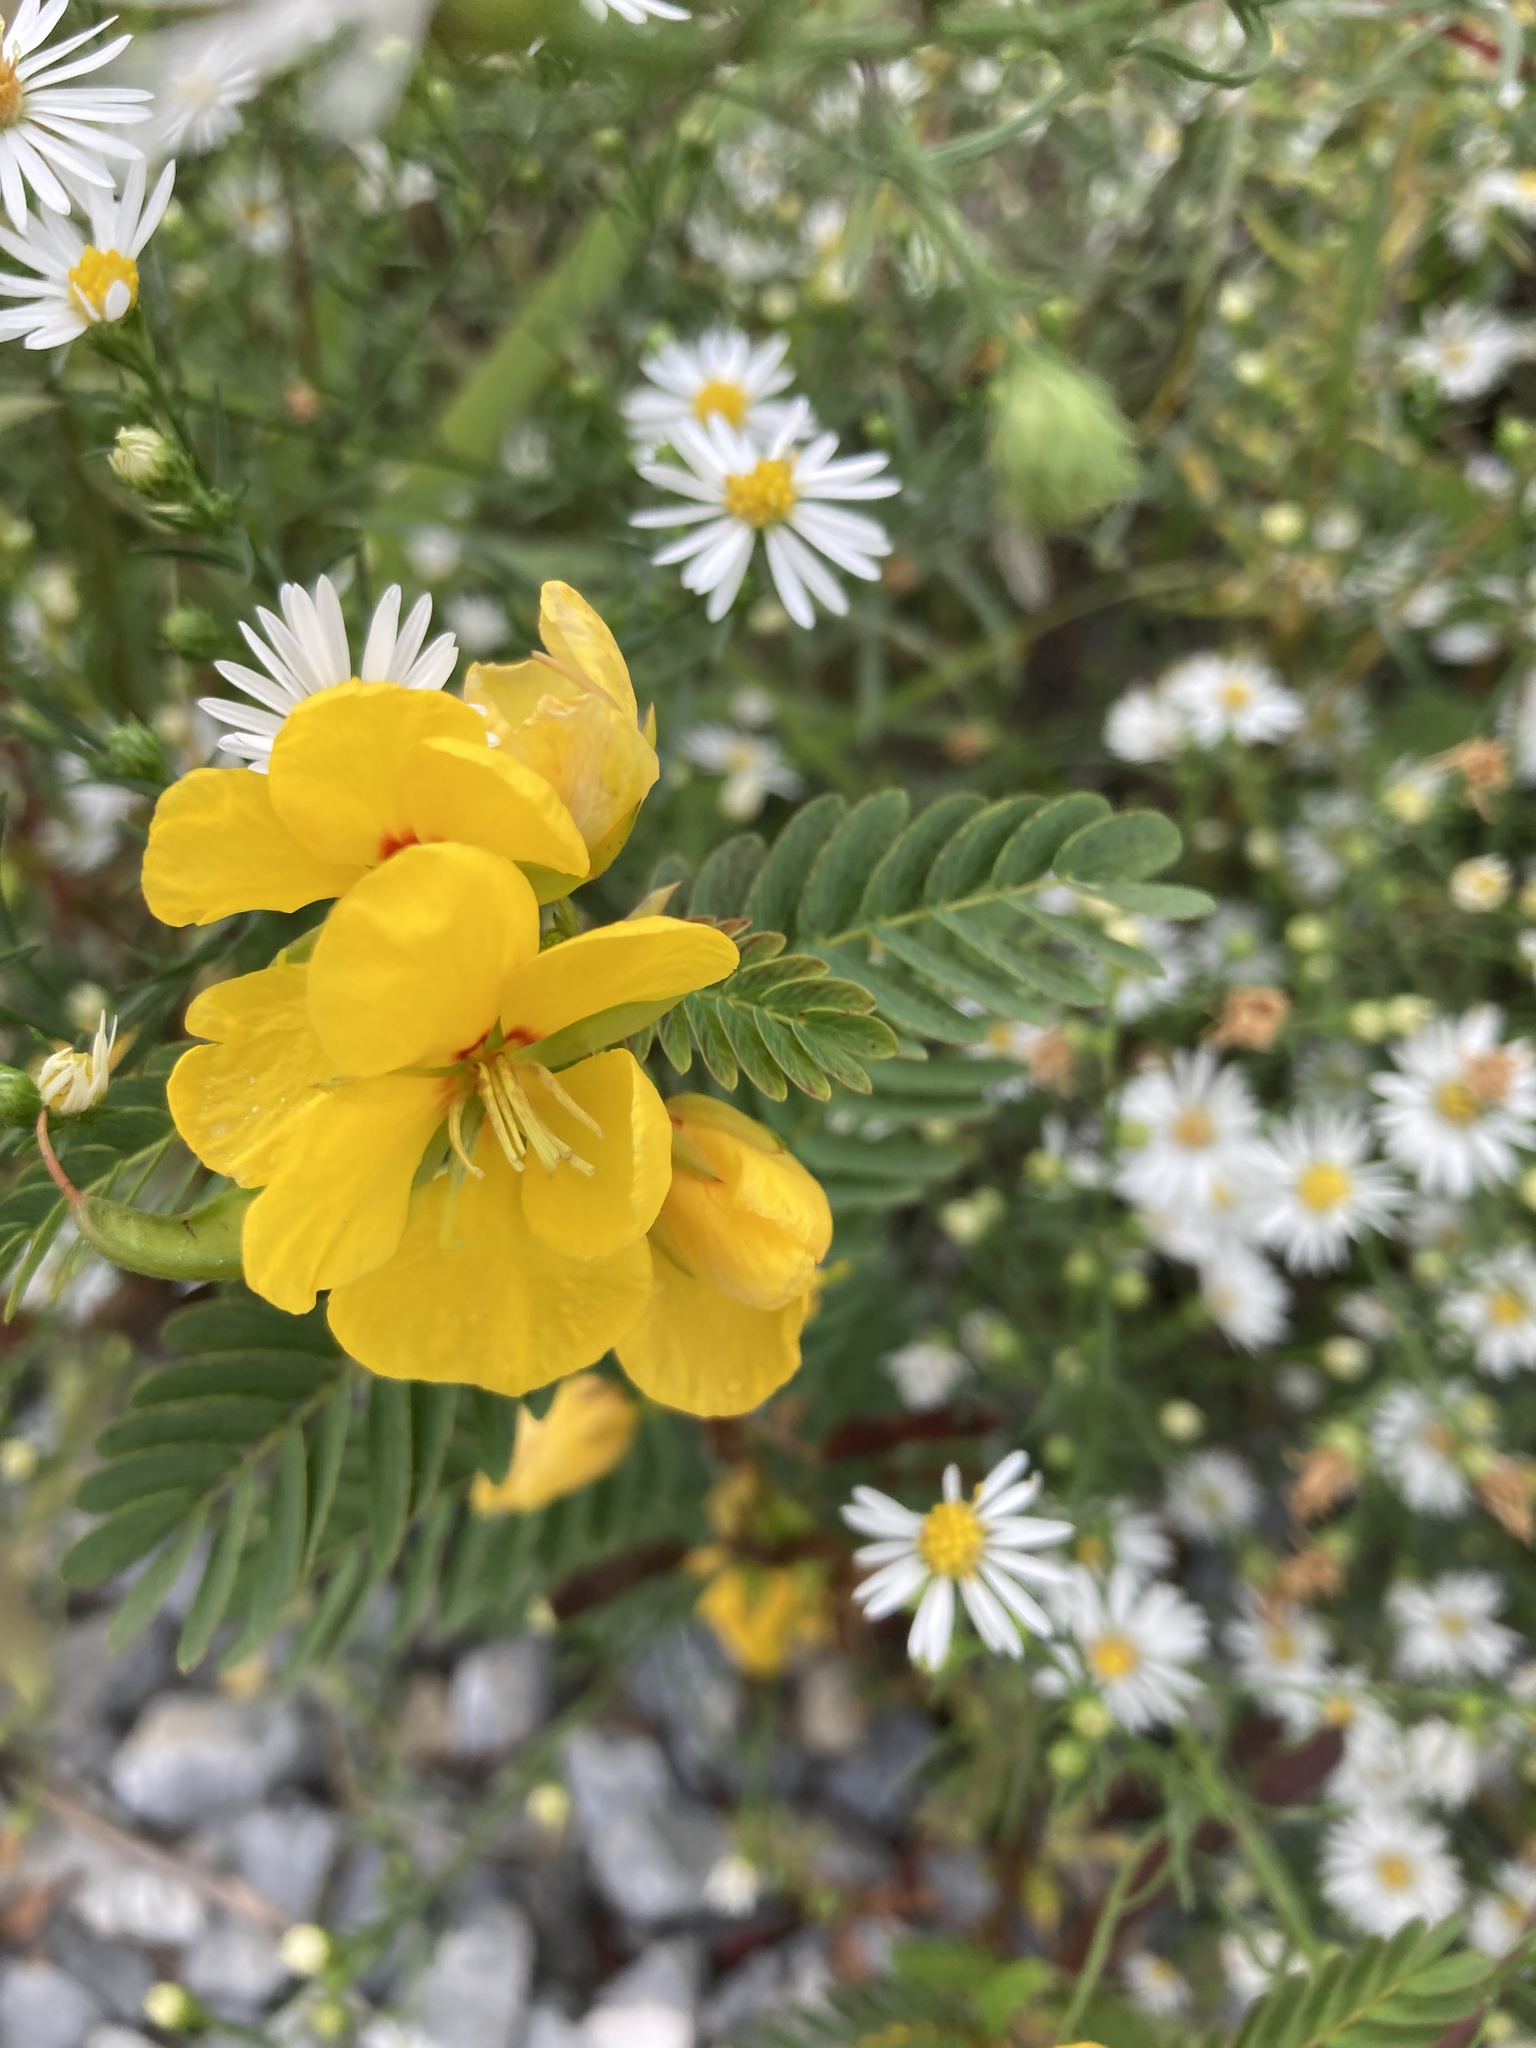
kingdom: Plantae
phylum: Tracheophyta
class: Magnoliopsida
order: Fabales
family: Fabaceae
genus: Chamaecrista
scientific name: Chamaecrista fasciculata
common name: Golden cassia
